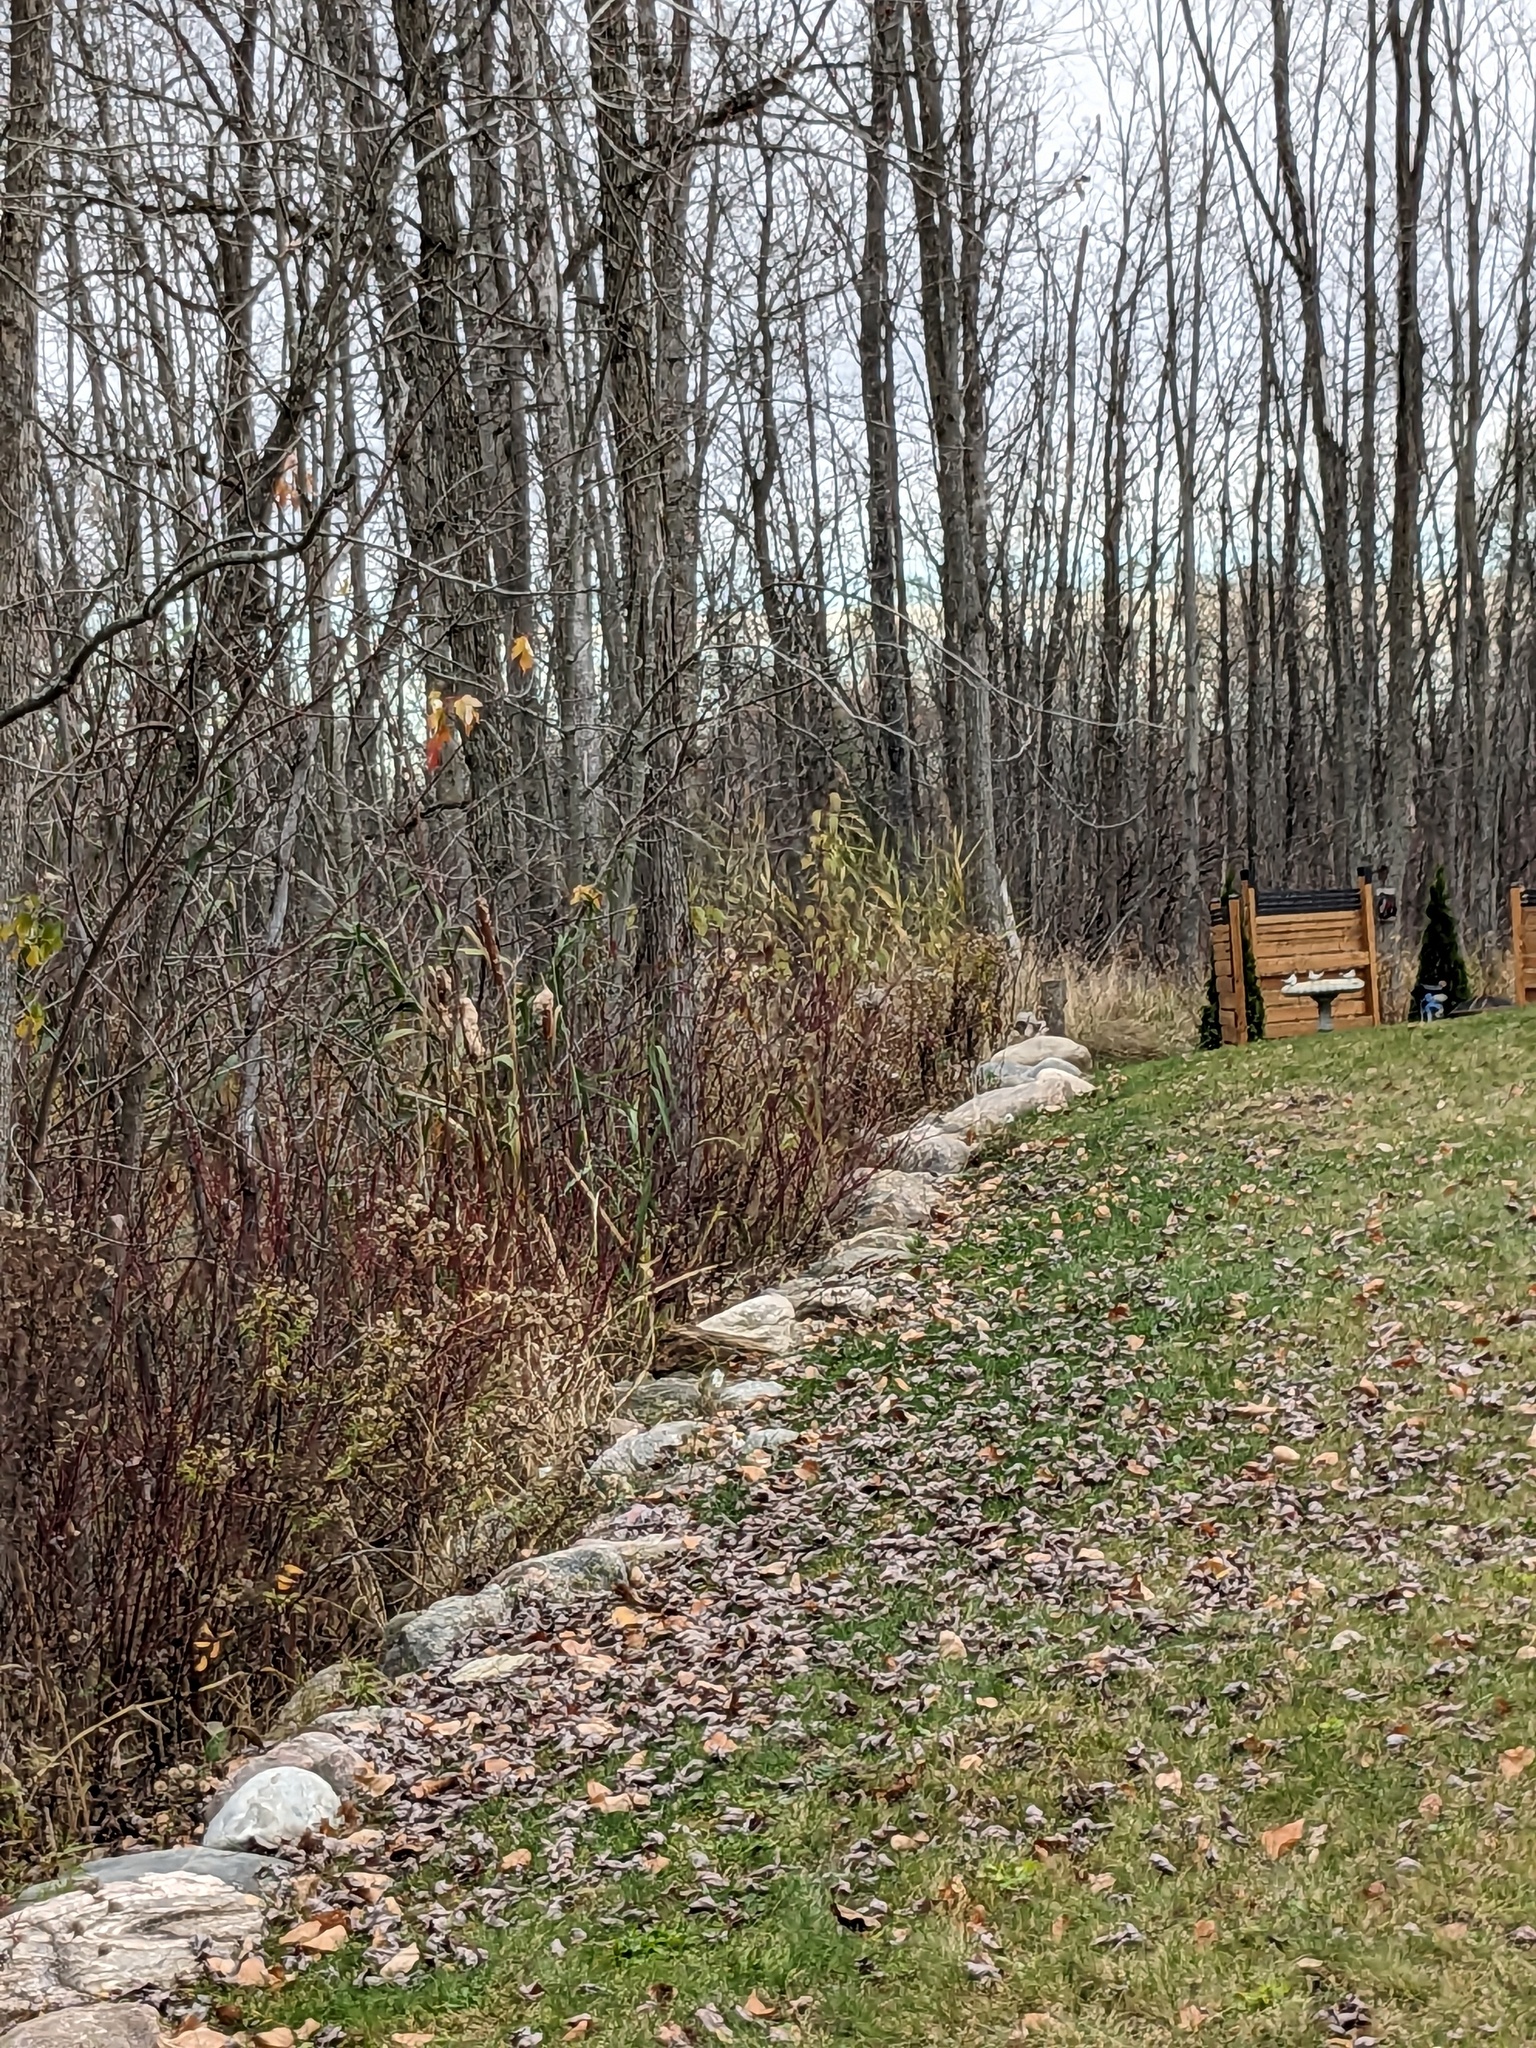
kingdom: Plantae
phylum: Tracheophyta
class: Liliopsida
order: Poales
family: Poaceae
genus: Phragmites
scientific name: Phragmites australis
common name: Common reed
